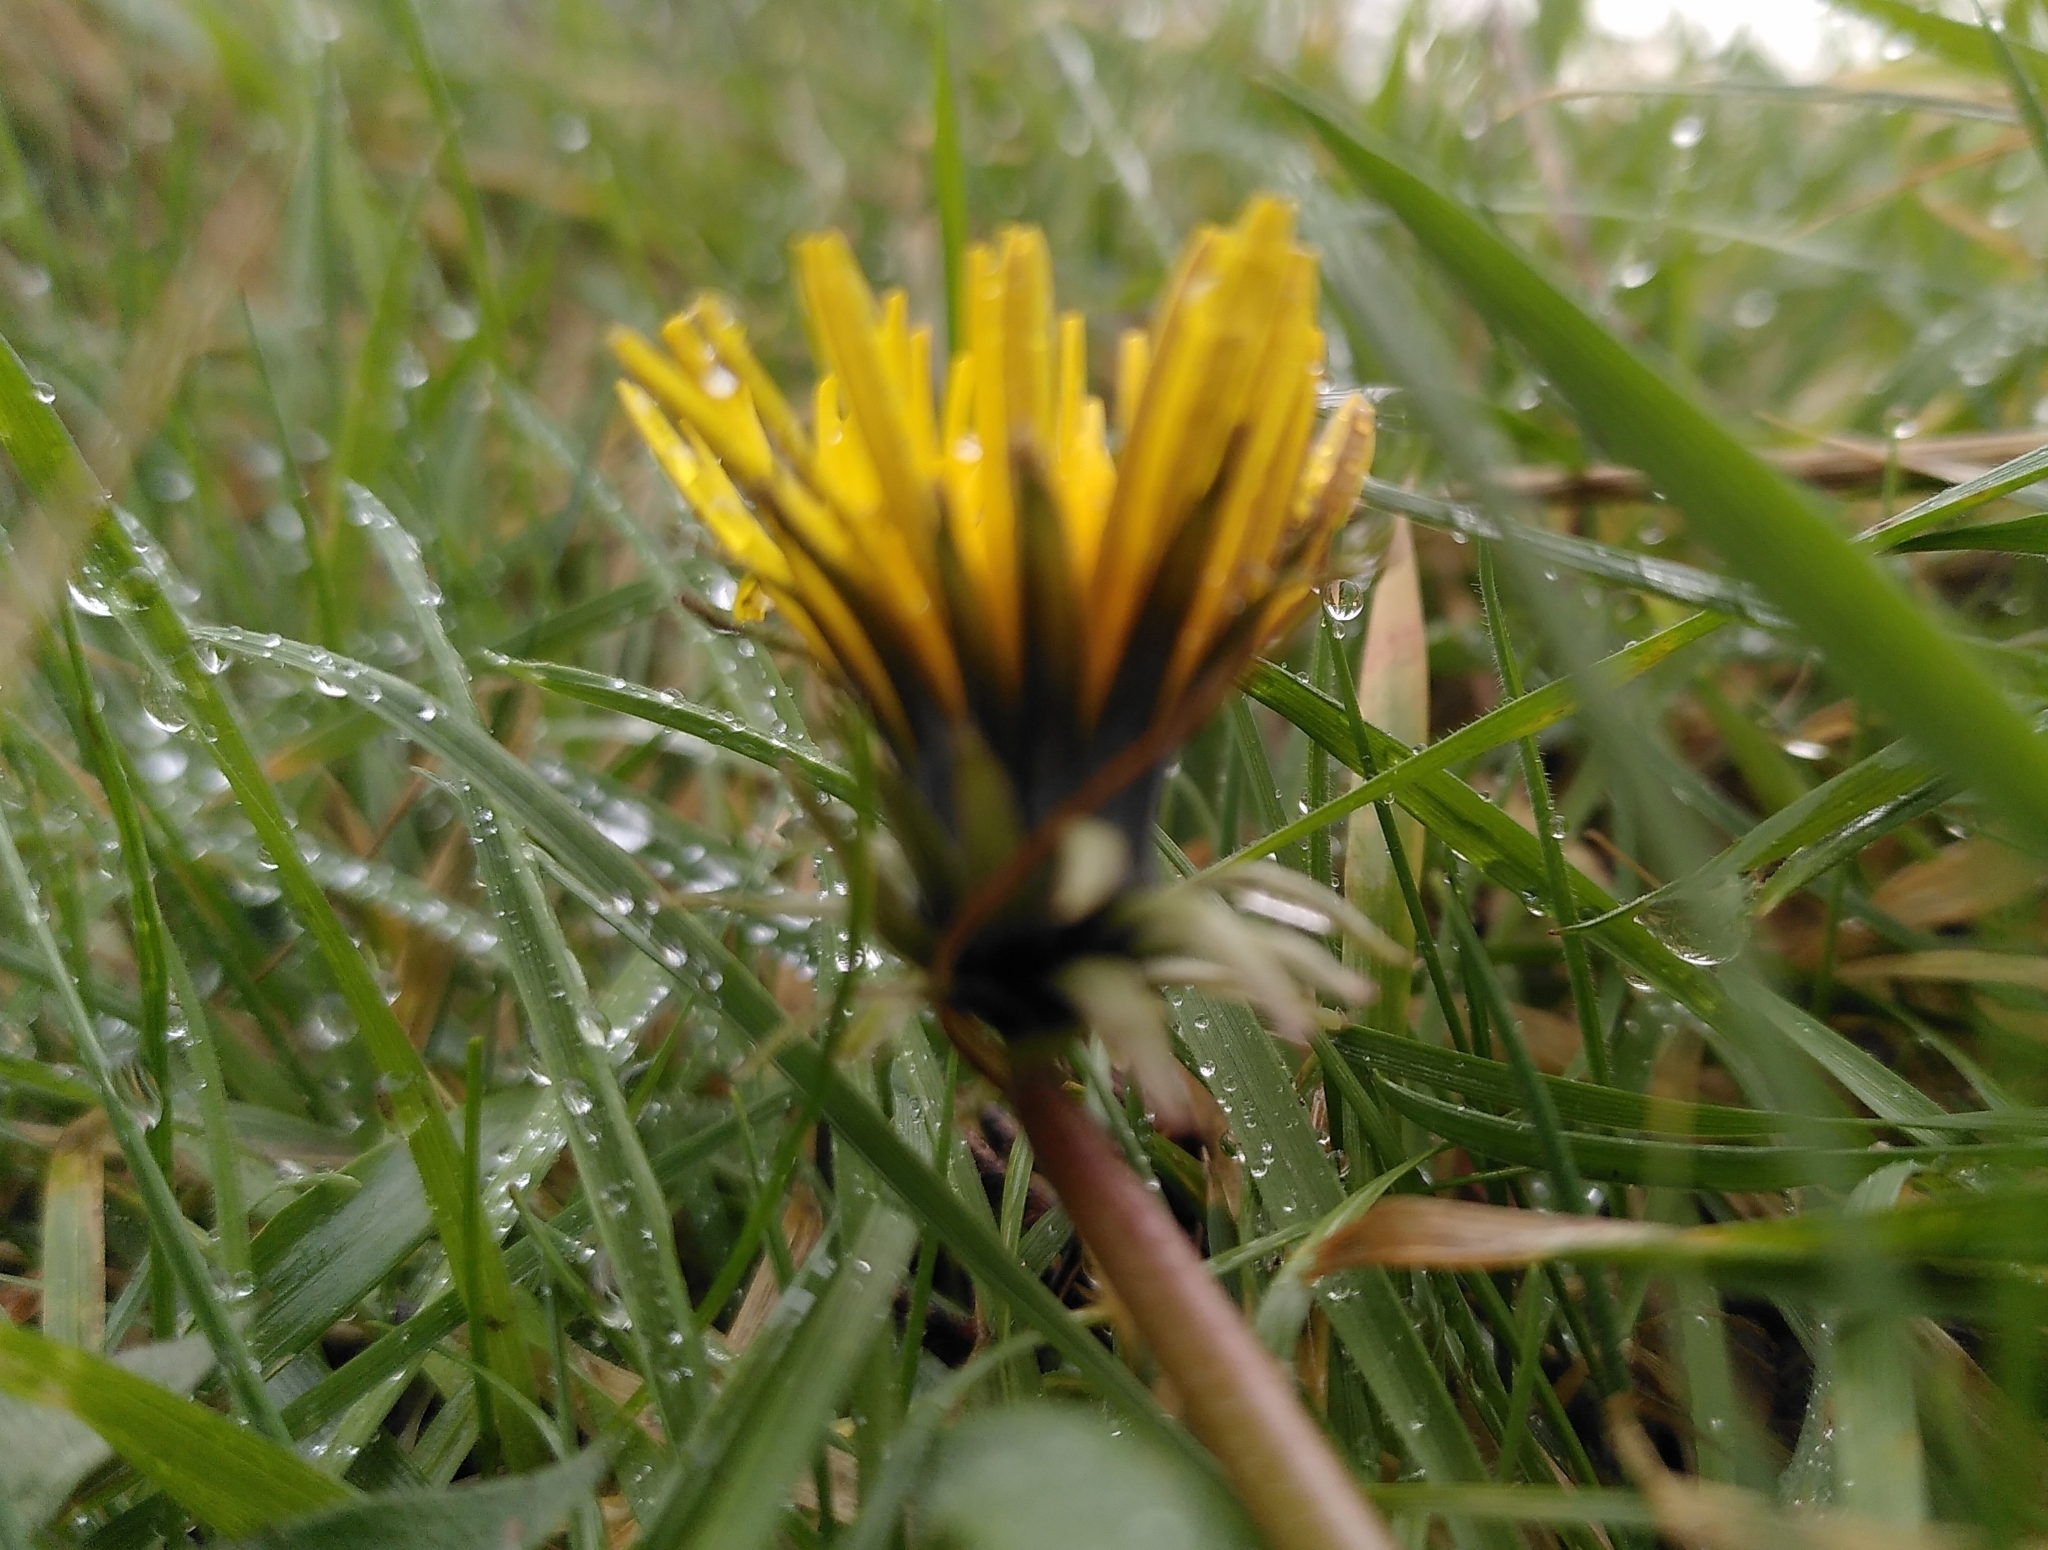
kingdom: Plantae
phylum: Tracheophyta
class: Magnoliopsida
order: Asterales
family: Asteraceae
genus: Taraxacum
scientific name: Taraxacum officinale
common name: Common dandelion
